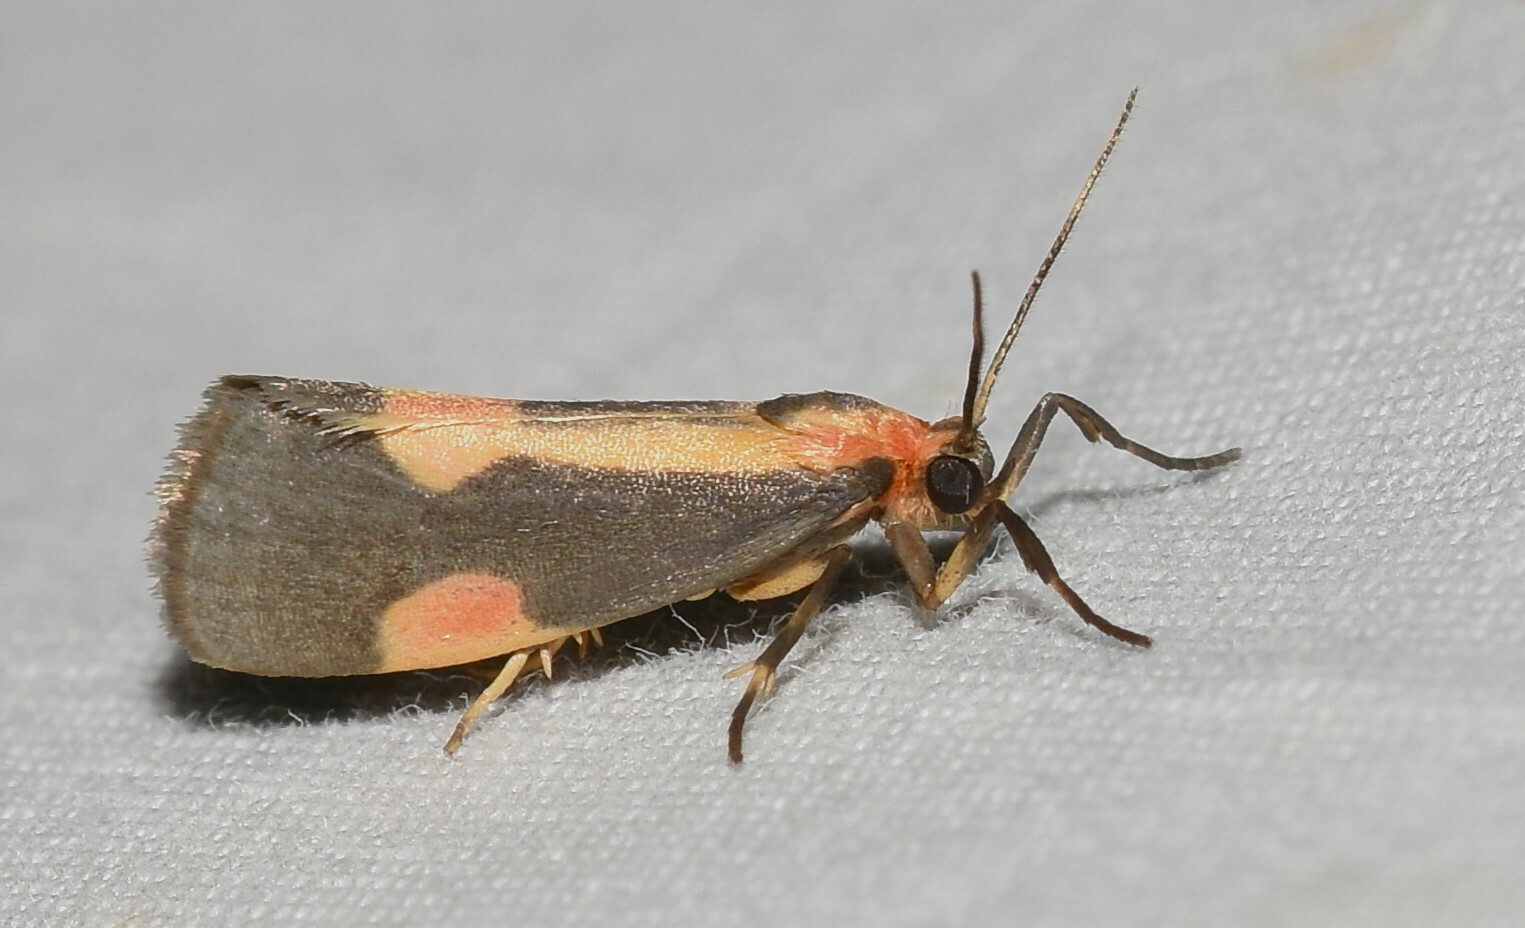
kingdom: Animalia
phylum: Arthropoda
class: Insecta
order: Lepidoptera
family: Erebidae
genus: Cisthene
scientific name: Cisthene packardii
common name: Packard's lichen moth
